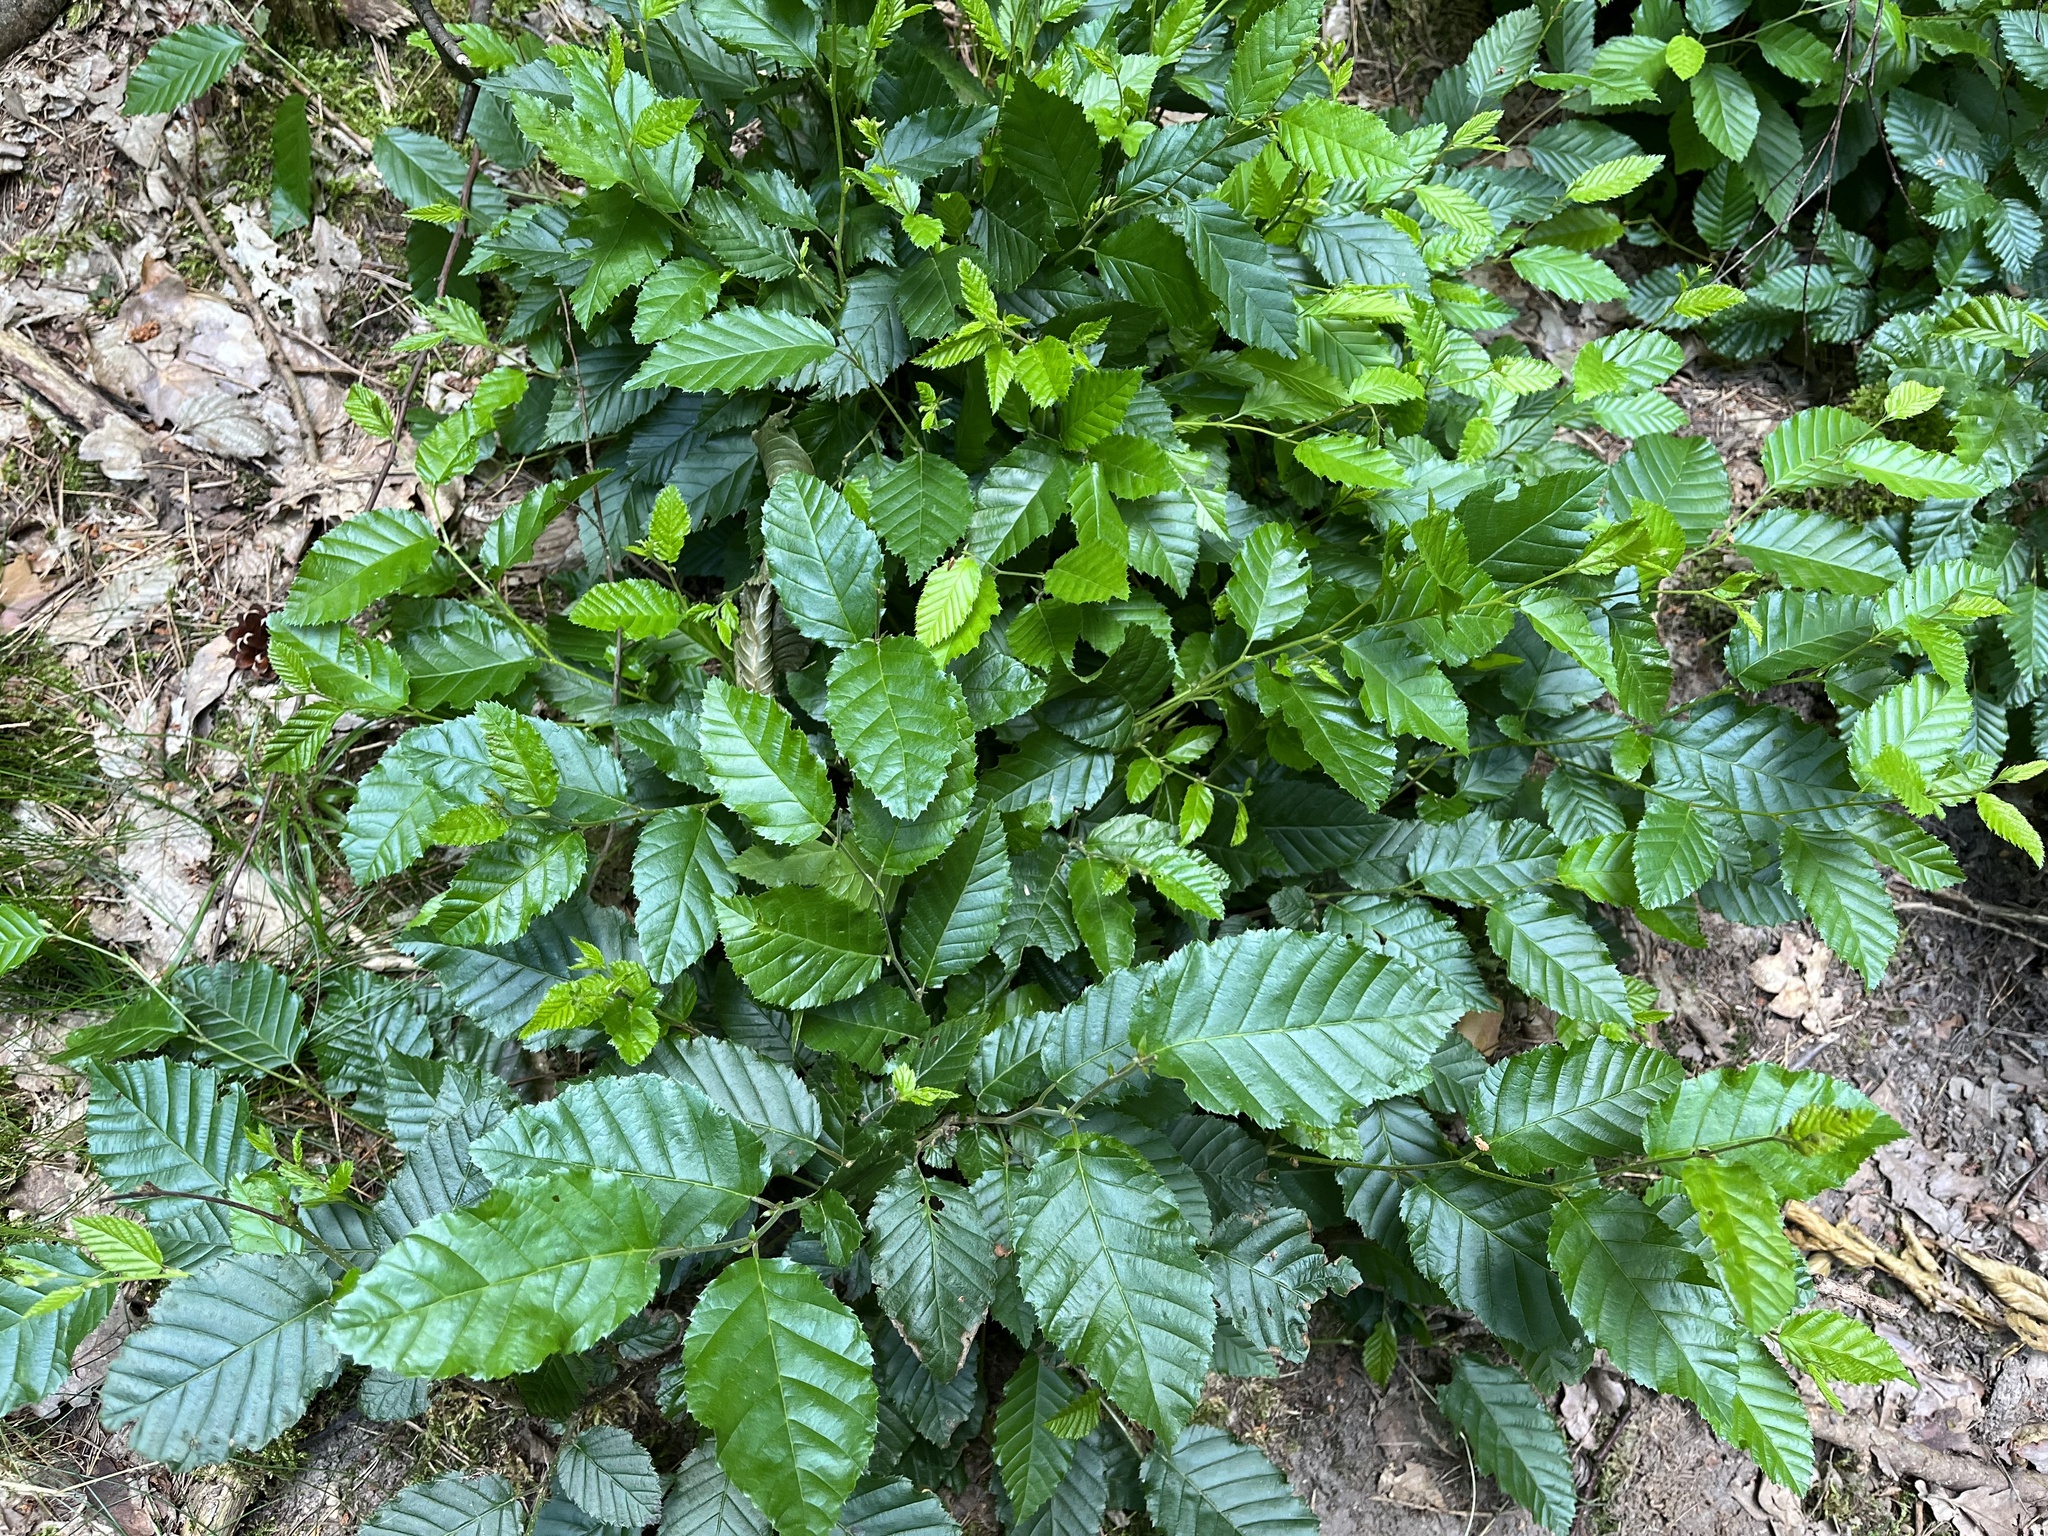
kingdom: Plantae
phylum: Tracheophyta
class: Magnoliopsida
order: Fagales
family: Betulaceae
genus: Carpinus
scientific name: Carpinus betulus
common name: Hornbeam
